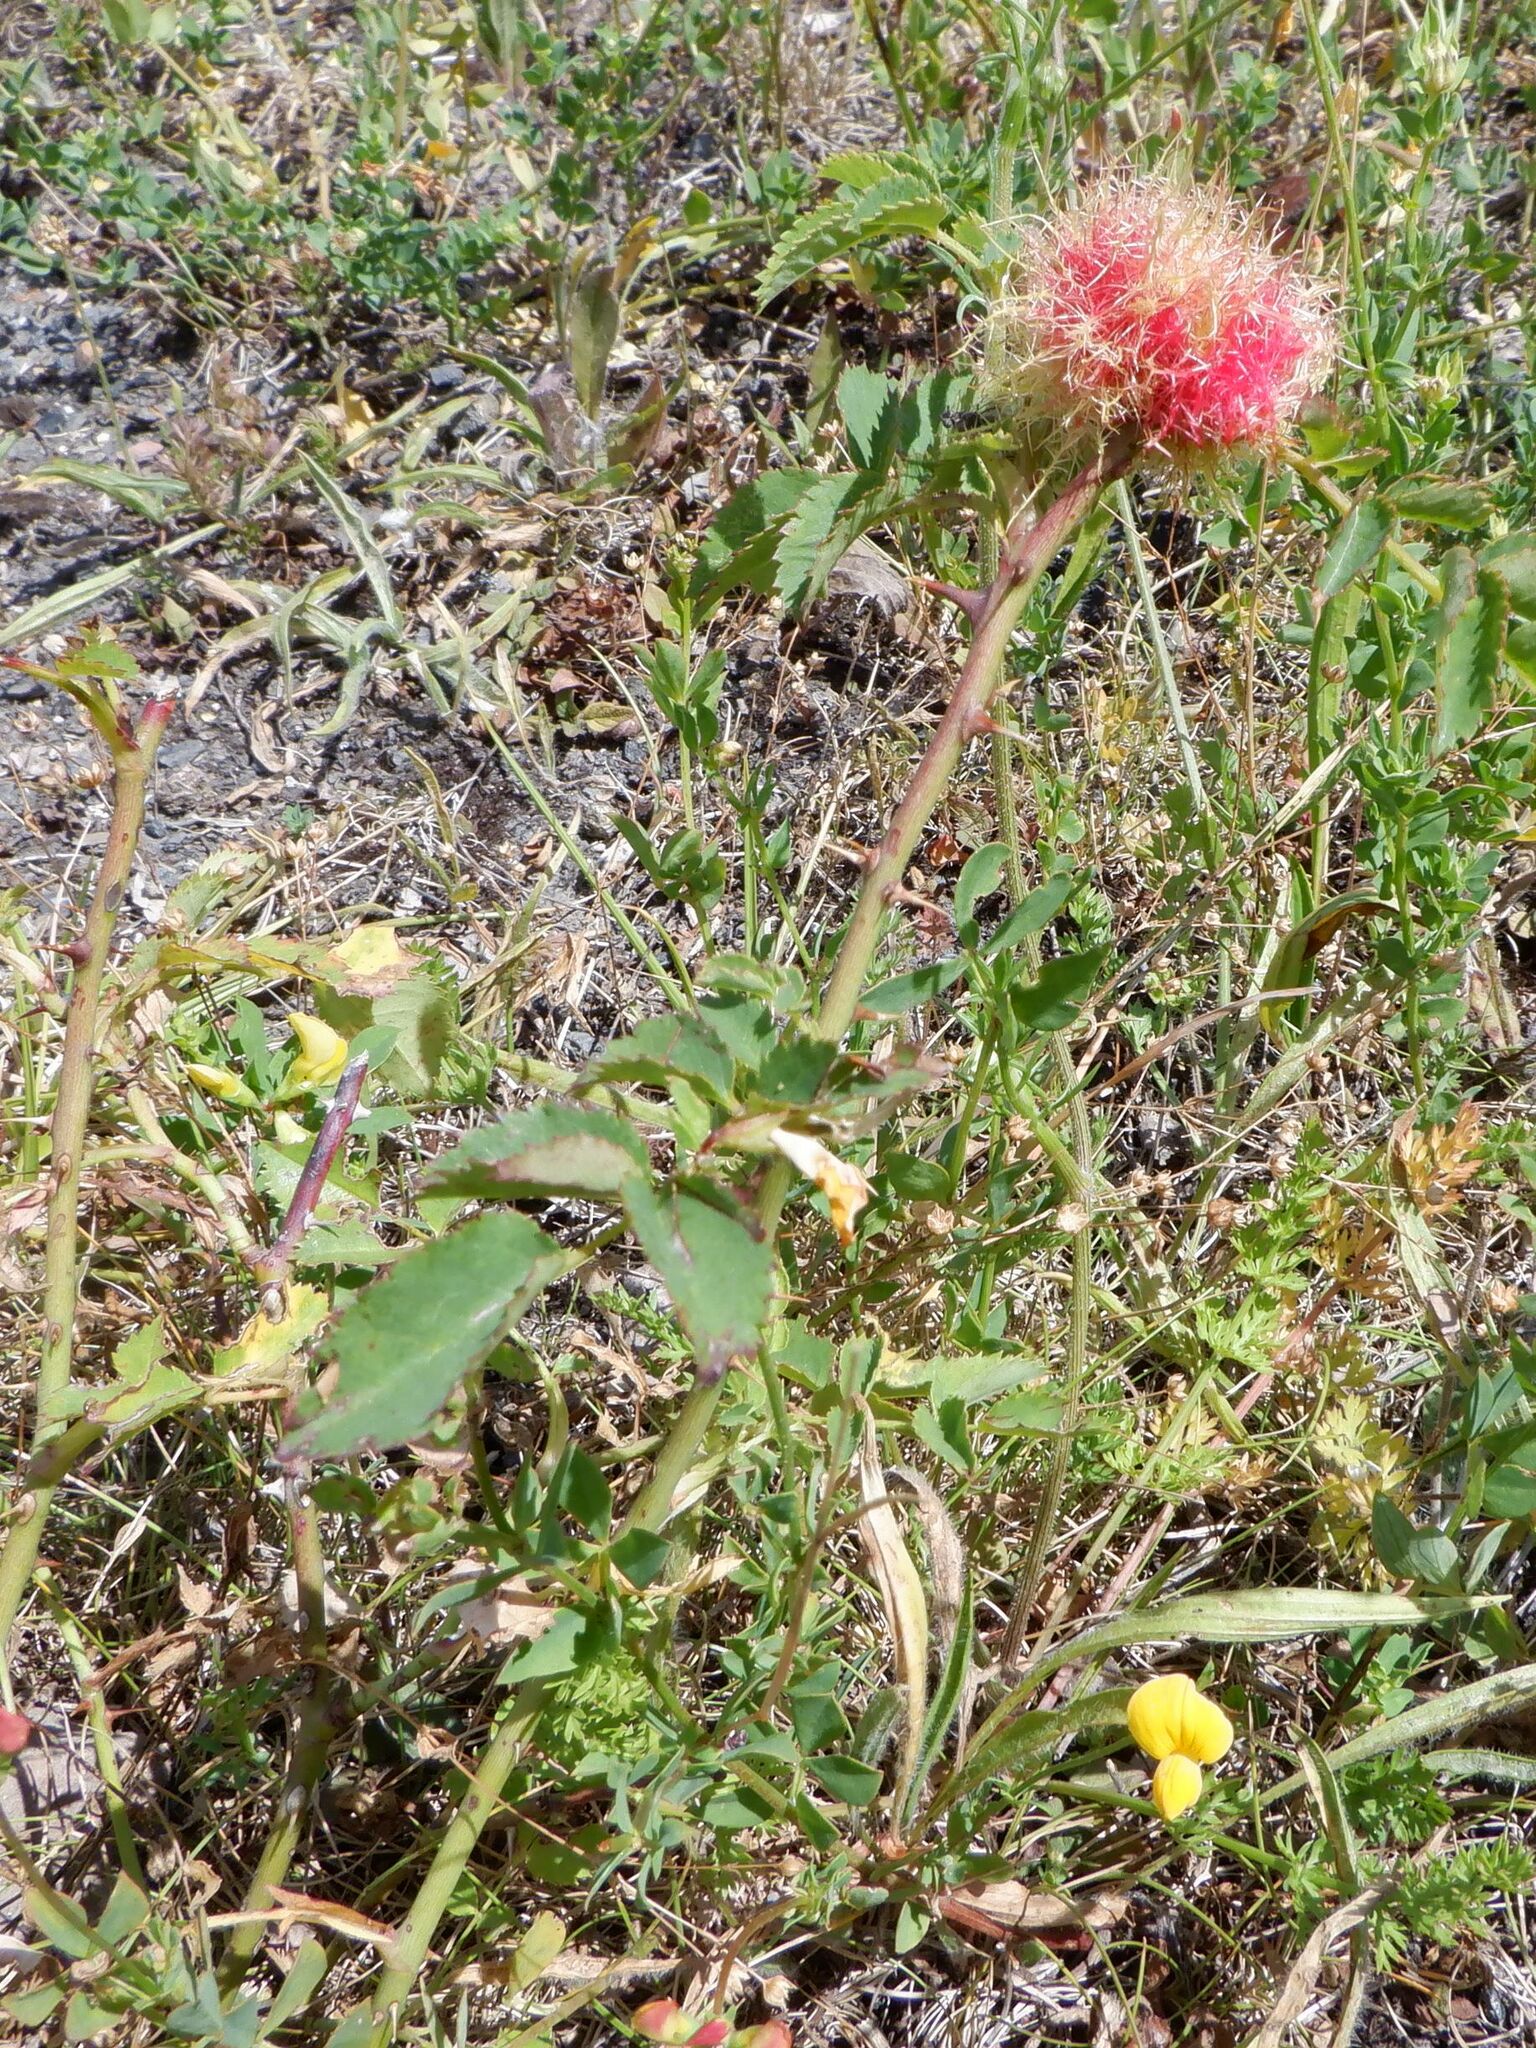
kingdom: Animalia
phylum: Arthropoda
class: Insecta
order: Hymenoptera
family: Cynipidae
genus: Diplolepis
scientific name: Diplolepis rosae
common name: Bedeguar gall
